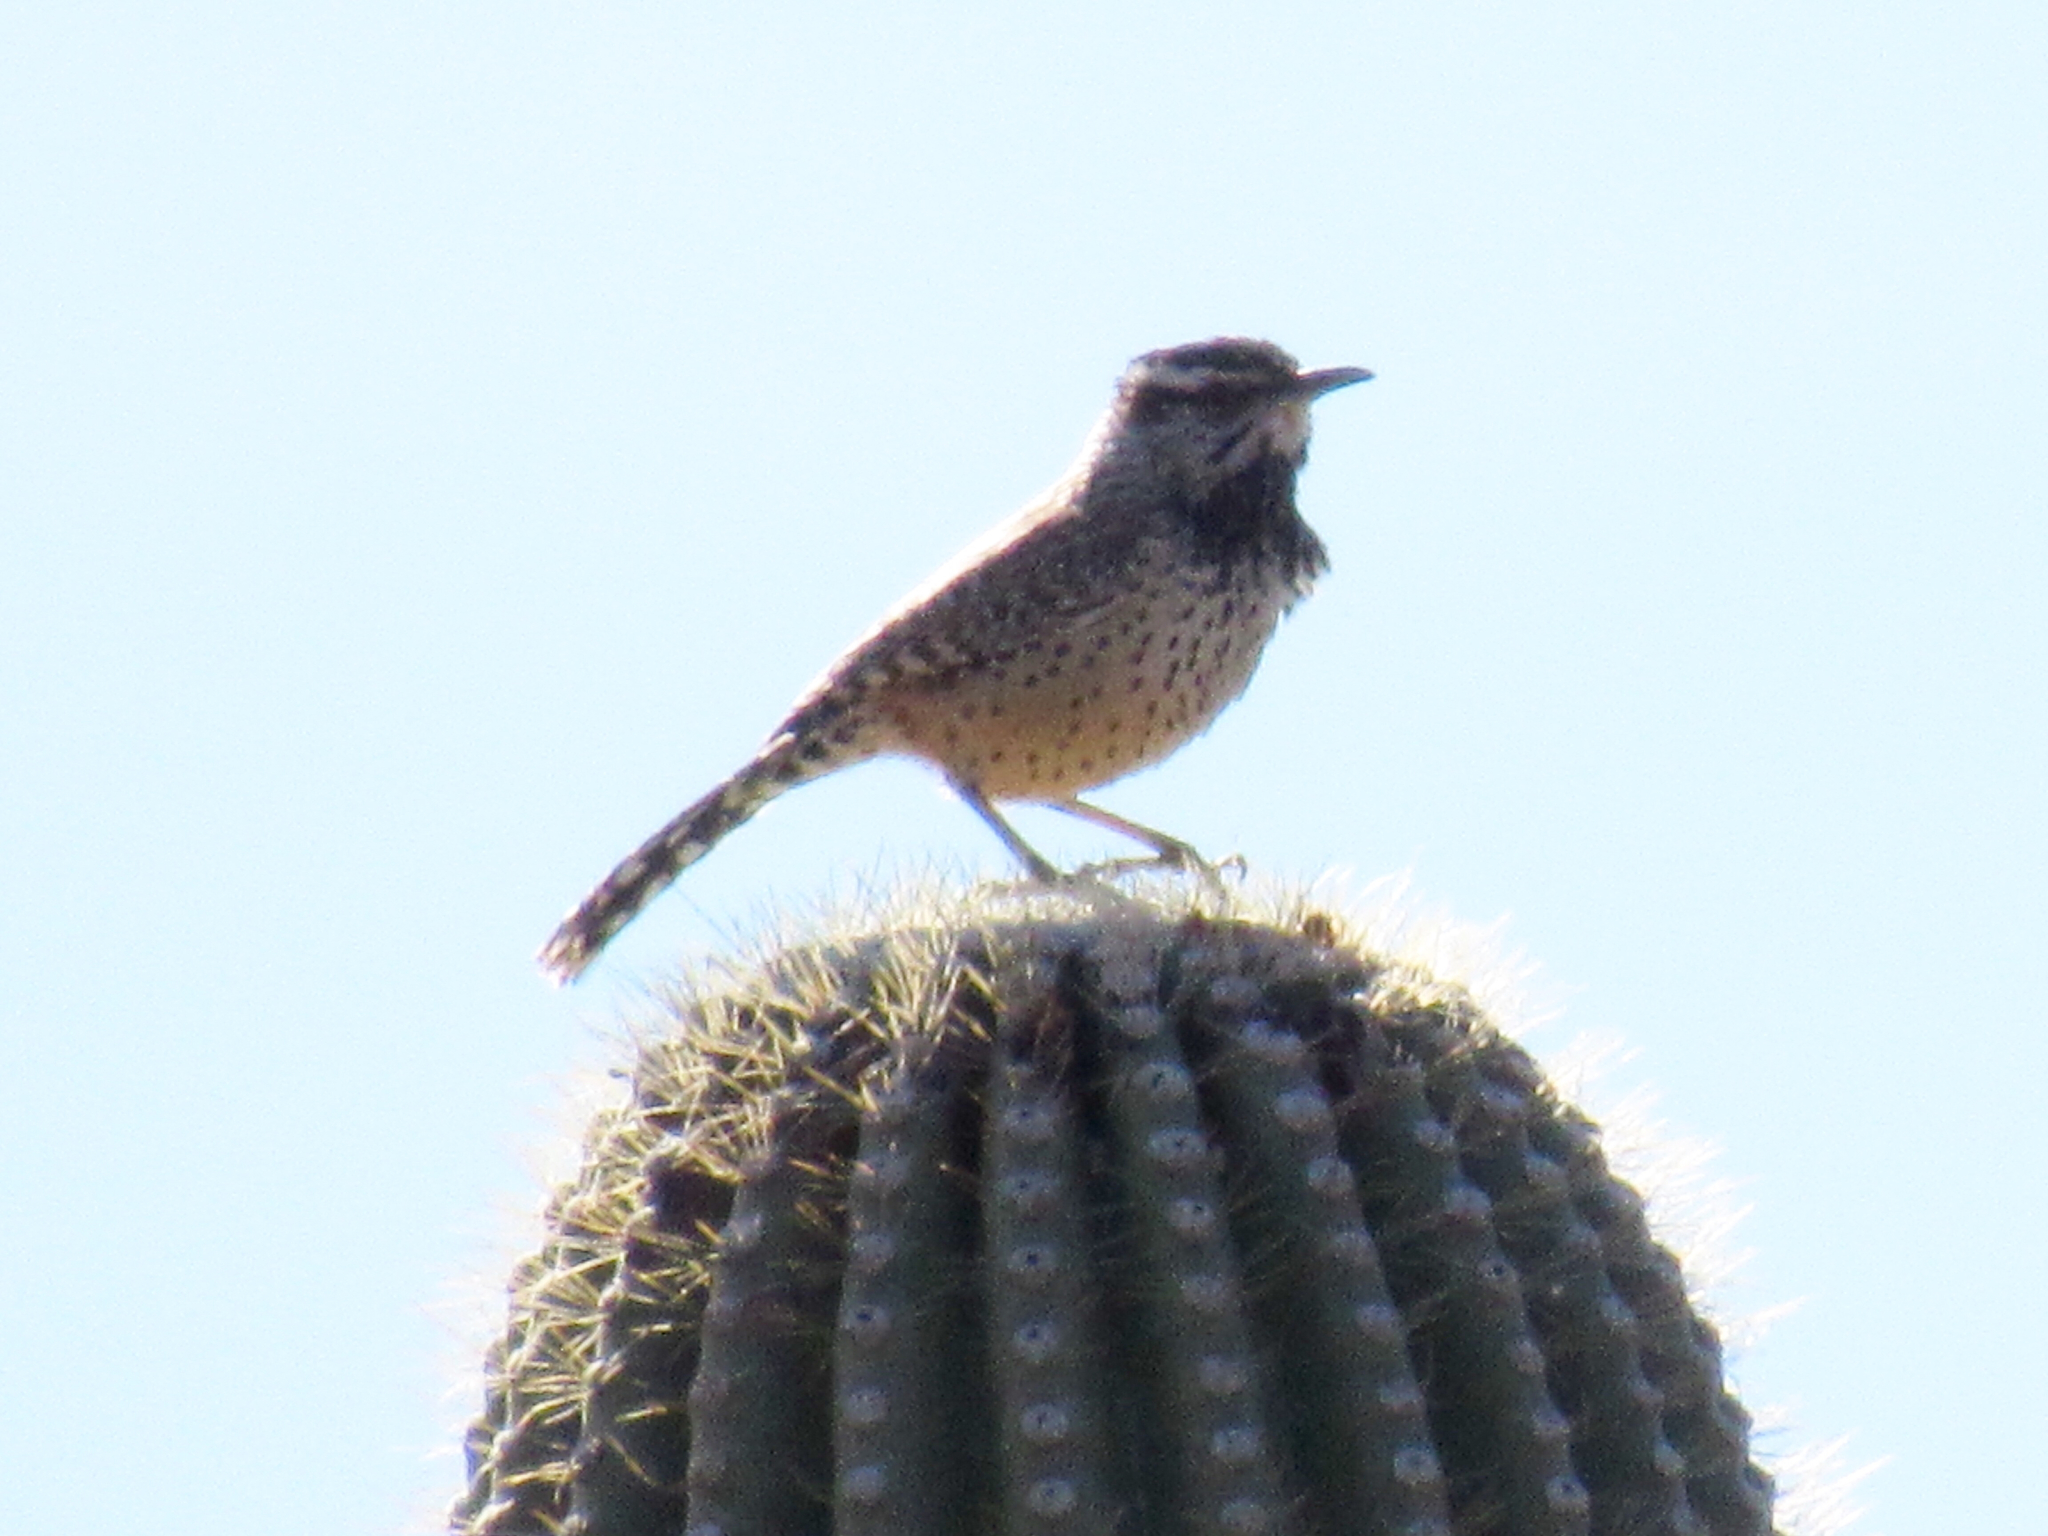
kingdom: Animalia
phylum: Chordata
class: Aves
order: Passeriformes
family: Troglodytidae
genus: Campylorhynchus
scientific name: Campylorhynchus brunneicapillus
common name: Cactus wren
